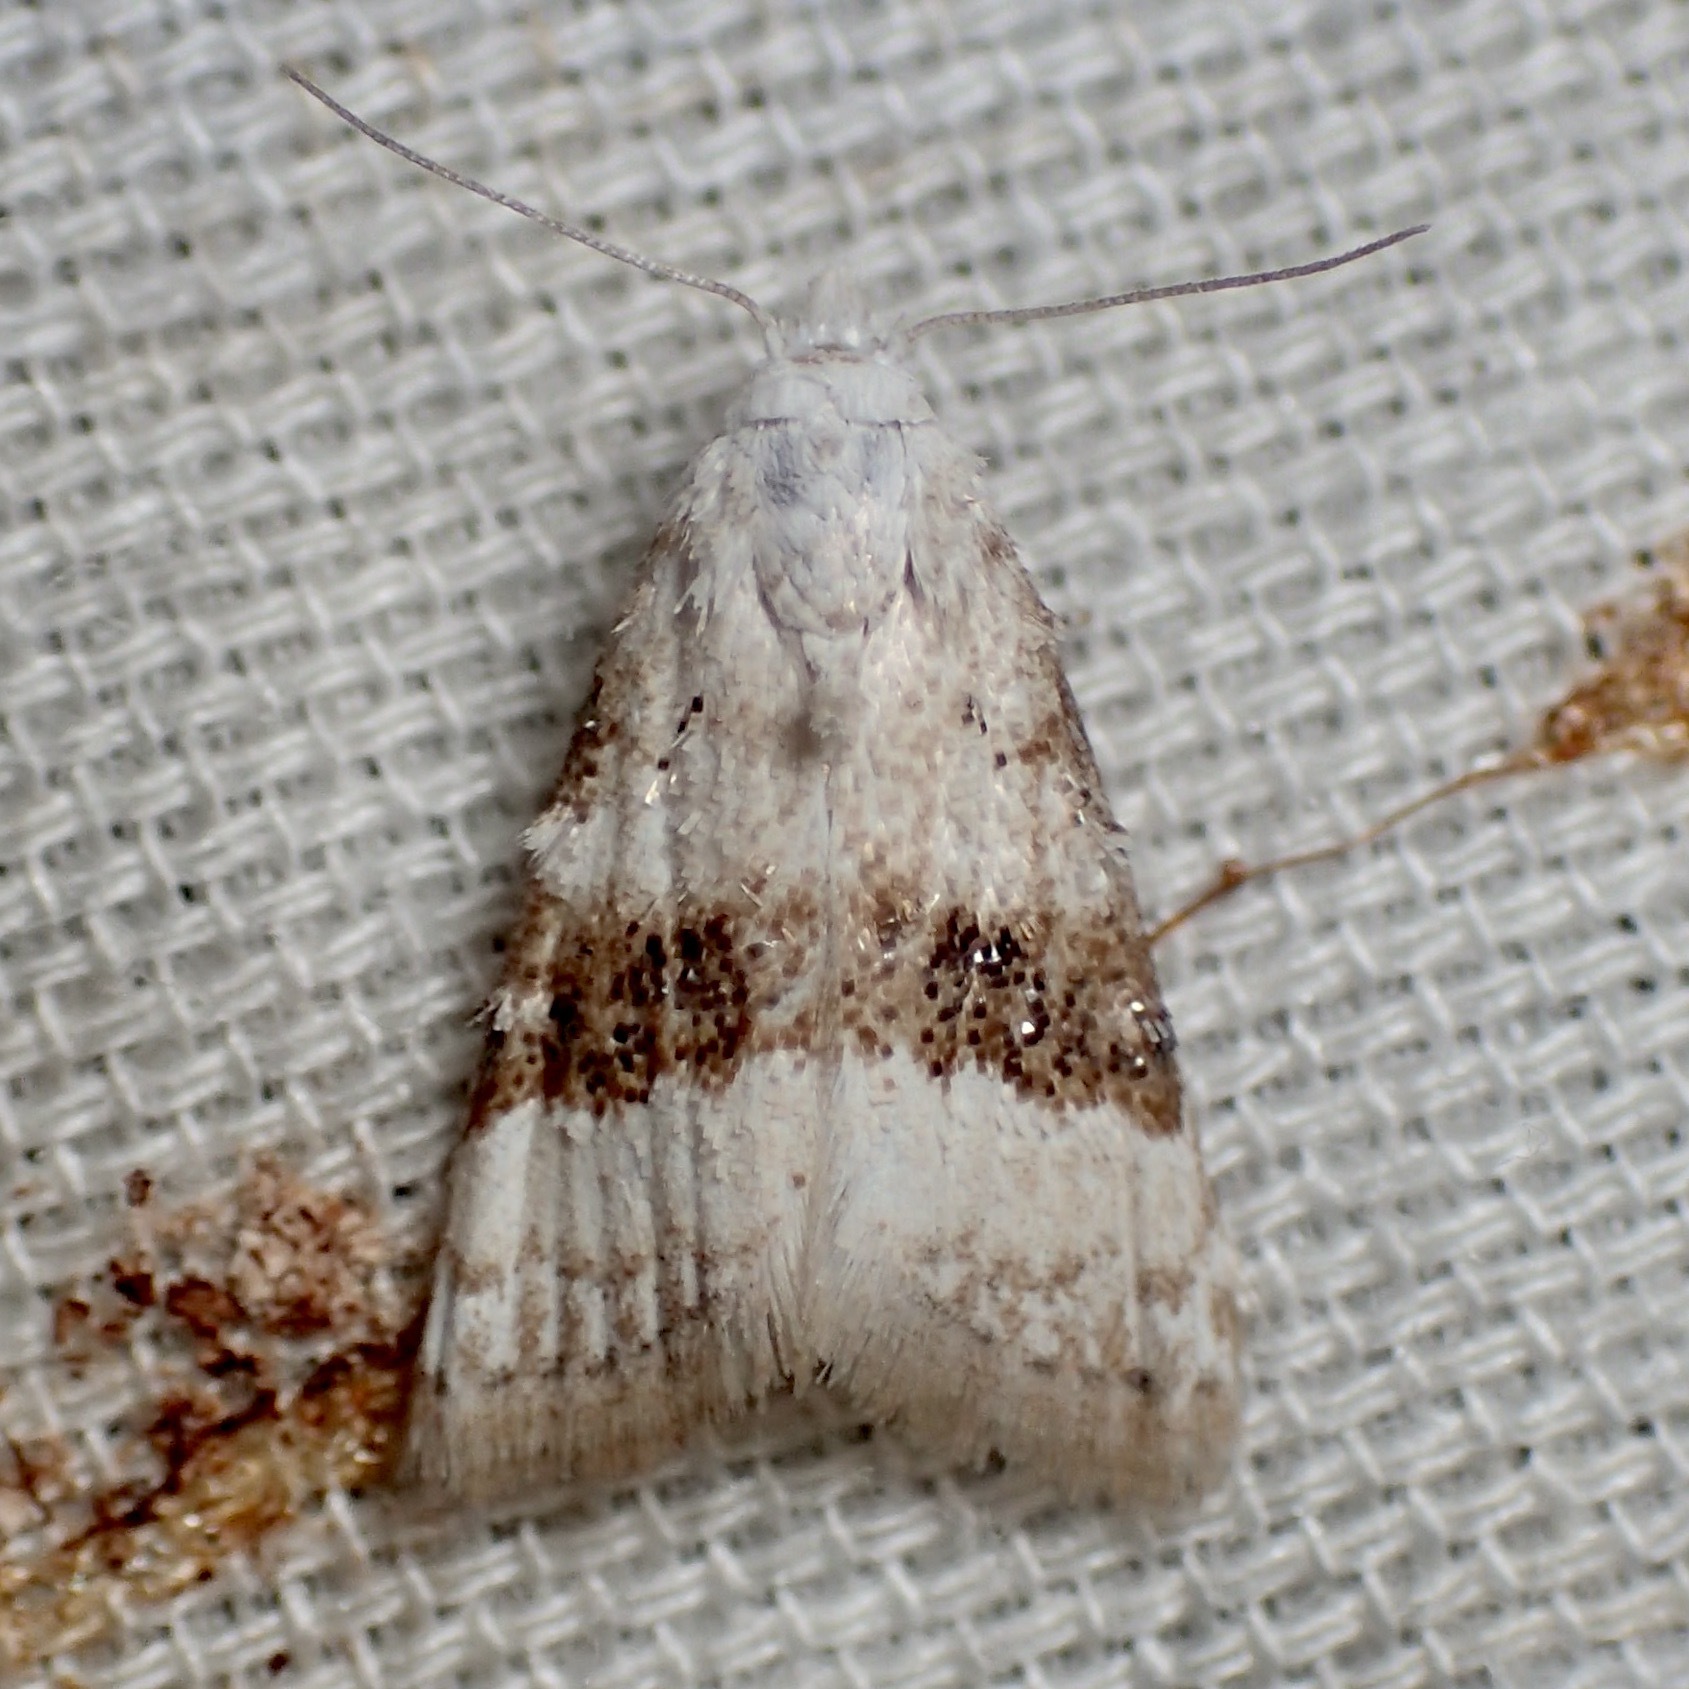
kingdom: Animalia
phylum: Arthropoda
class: Insecta
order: Lepidoptera
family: Nolidae
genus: Nola
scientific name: Nola taeniata
